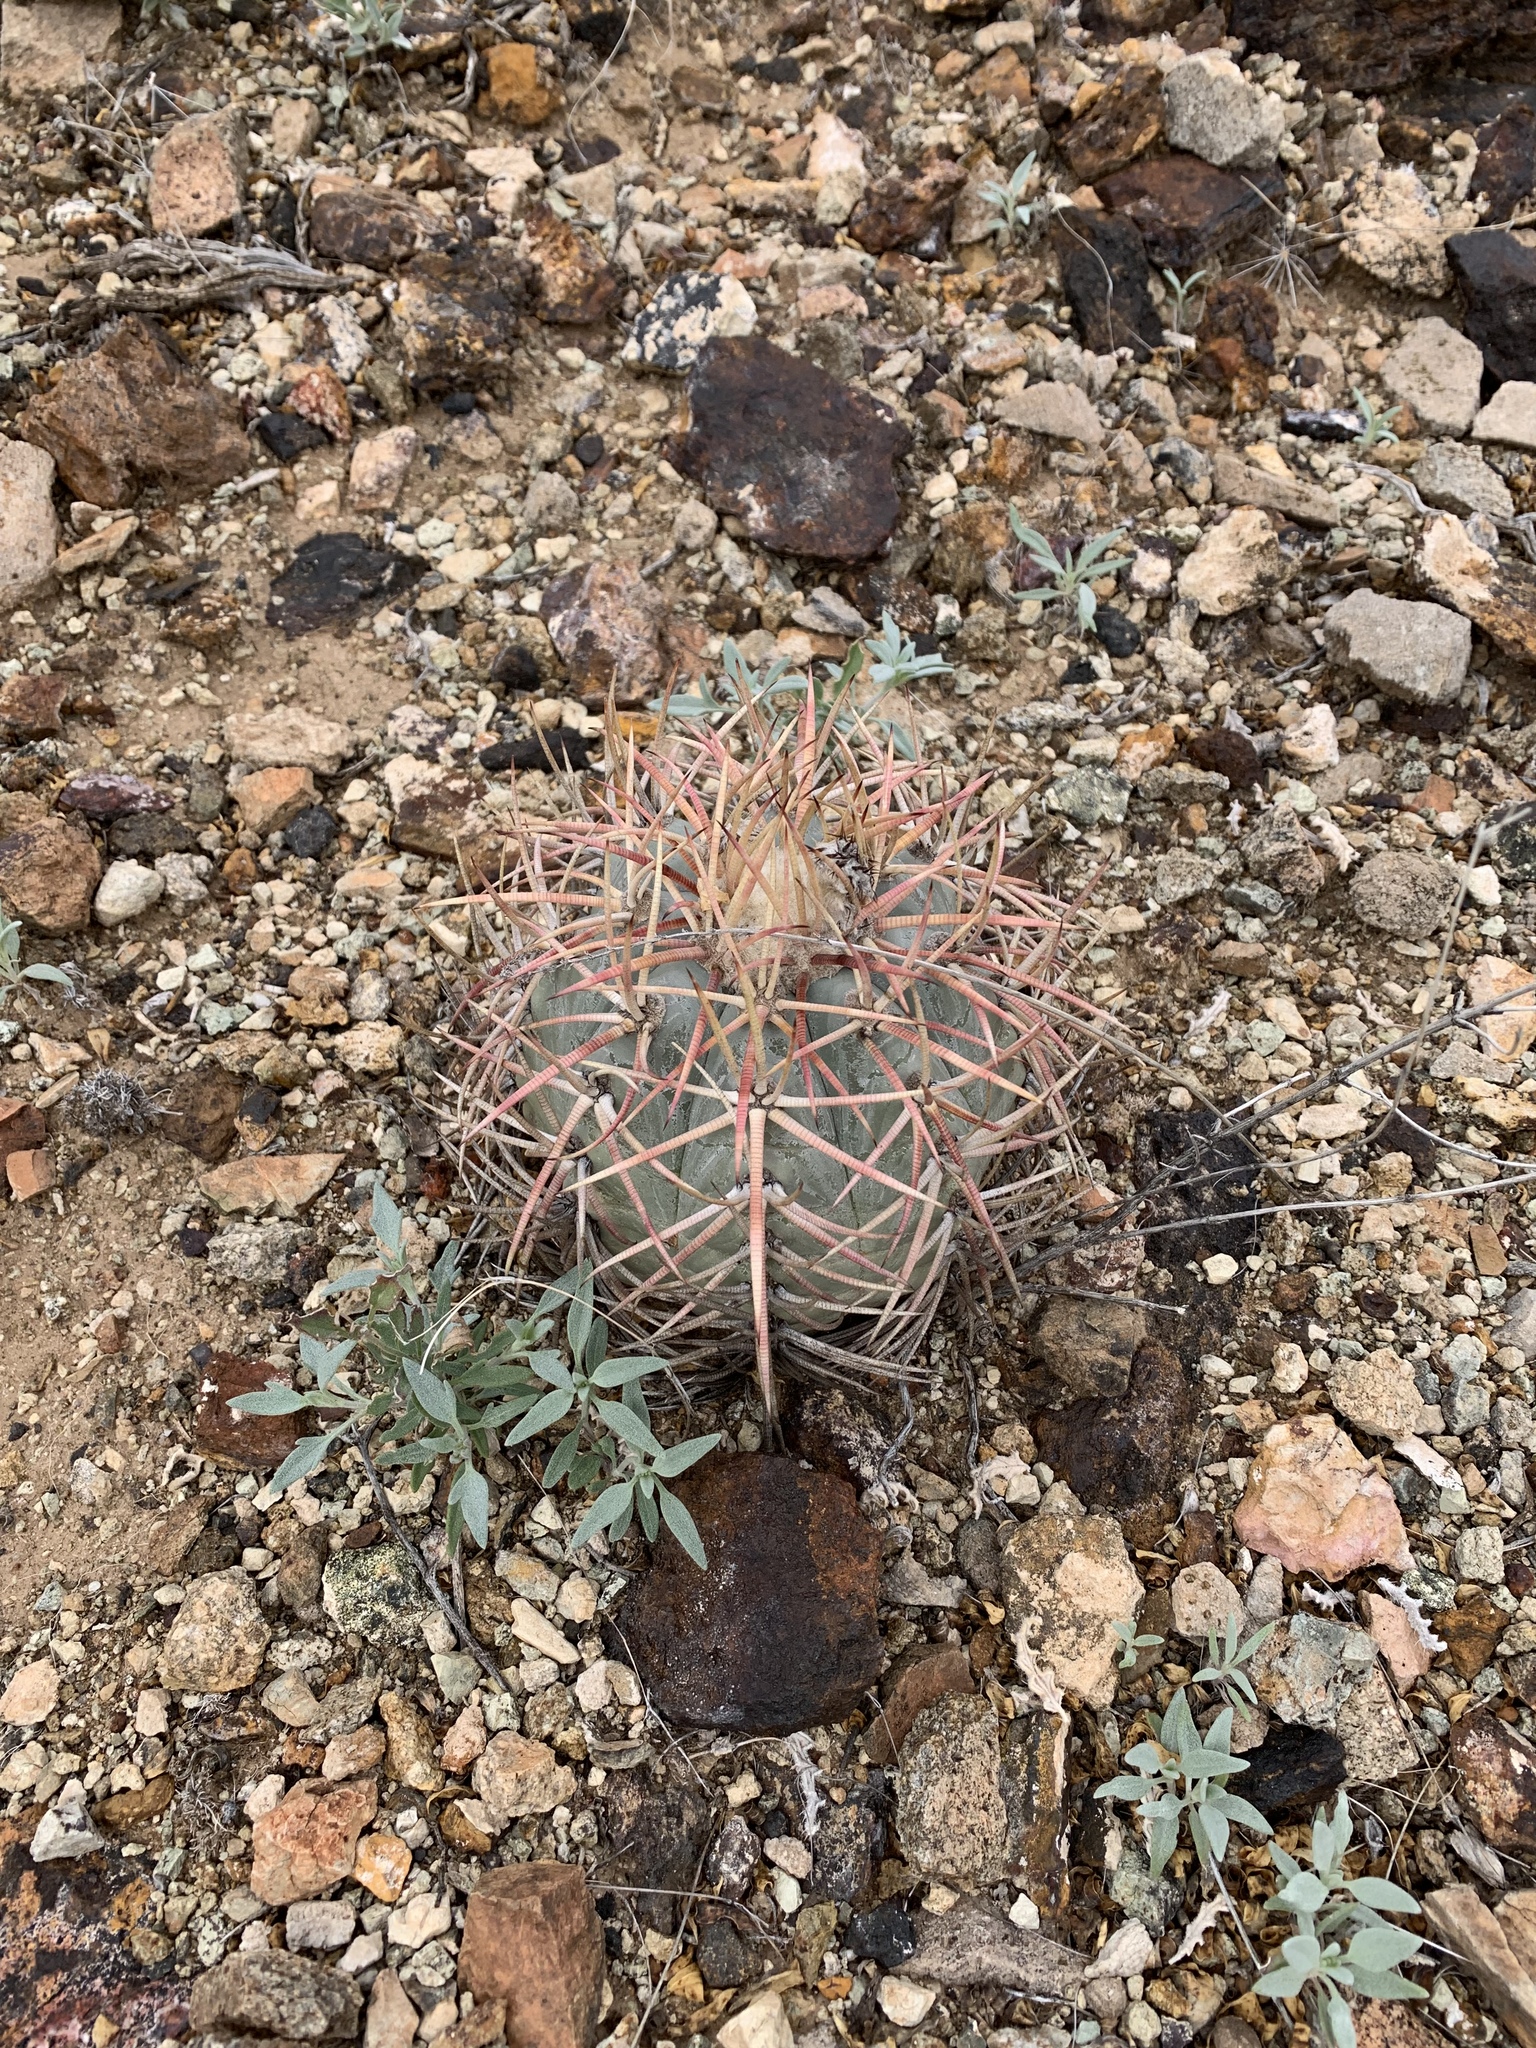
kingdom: Plantae
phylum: Tracheophyta
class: Magnoliopsida
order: Caryophyllales
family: Cactaceae
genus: Echinocactus
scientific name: Echinocactus horizonthalonius
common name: Devilshead
